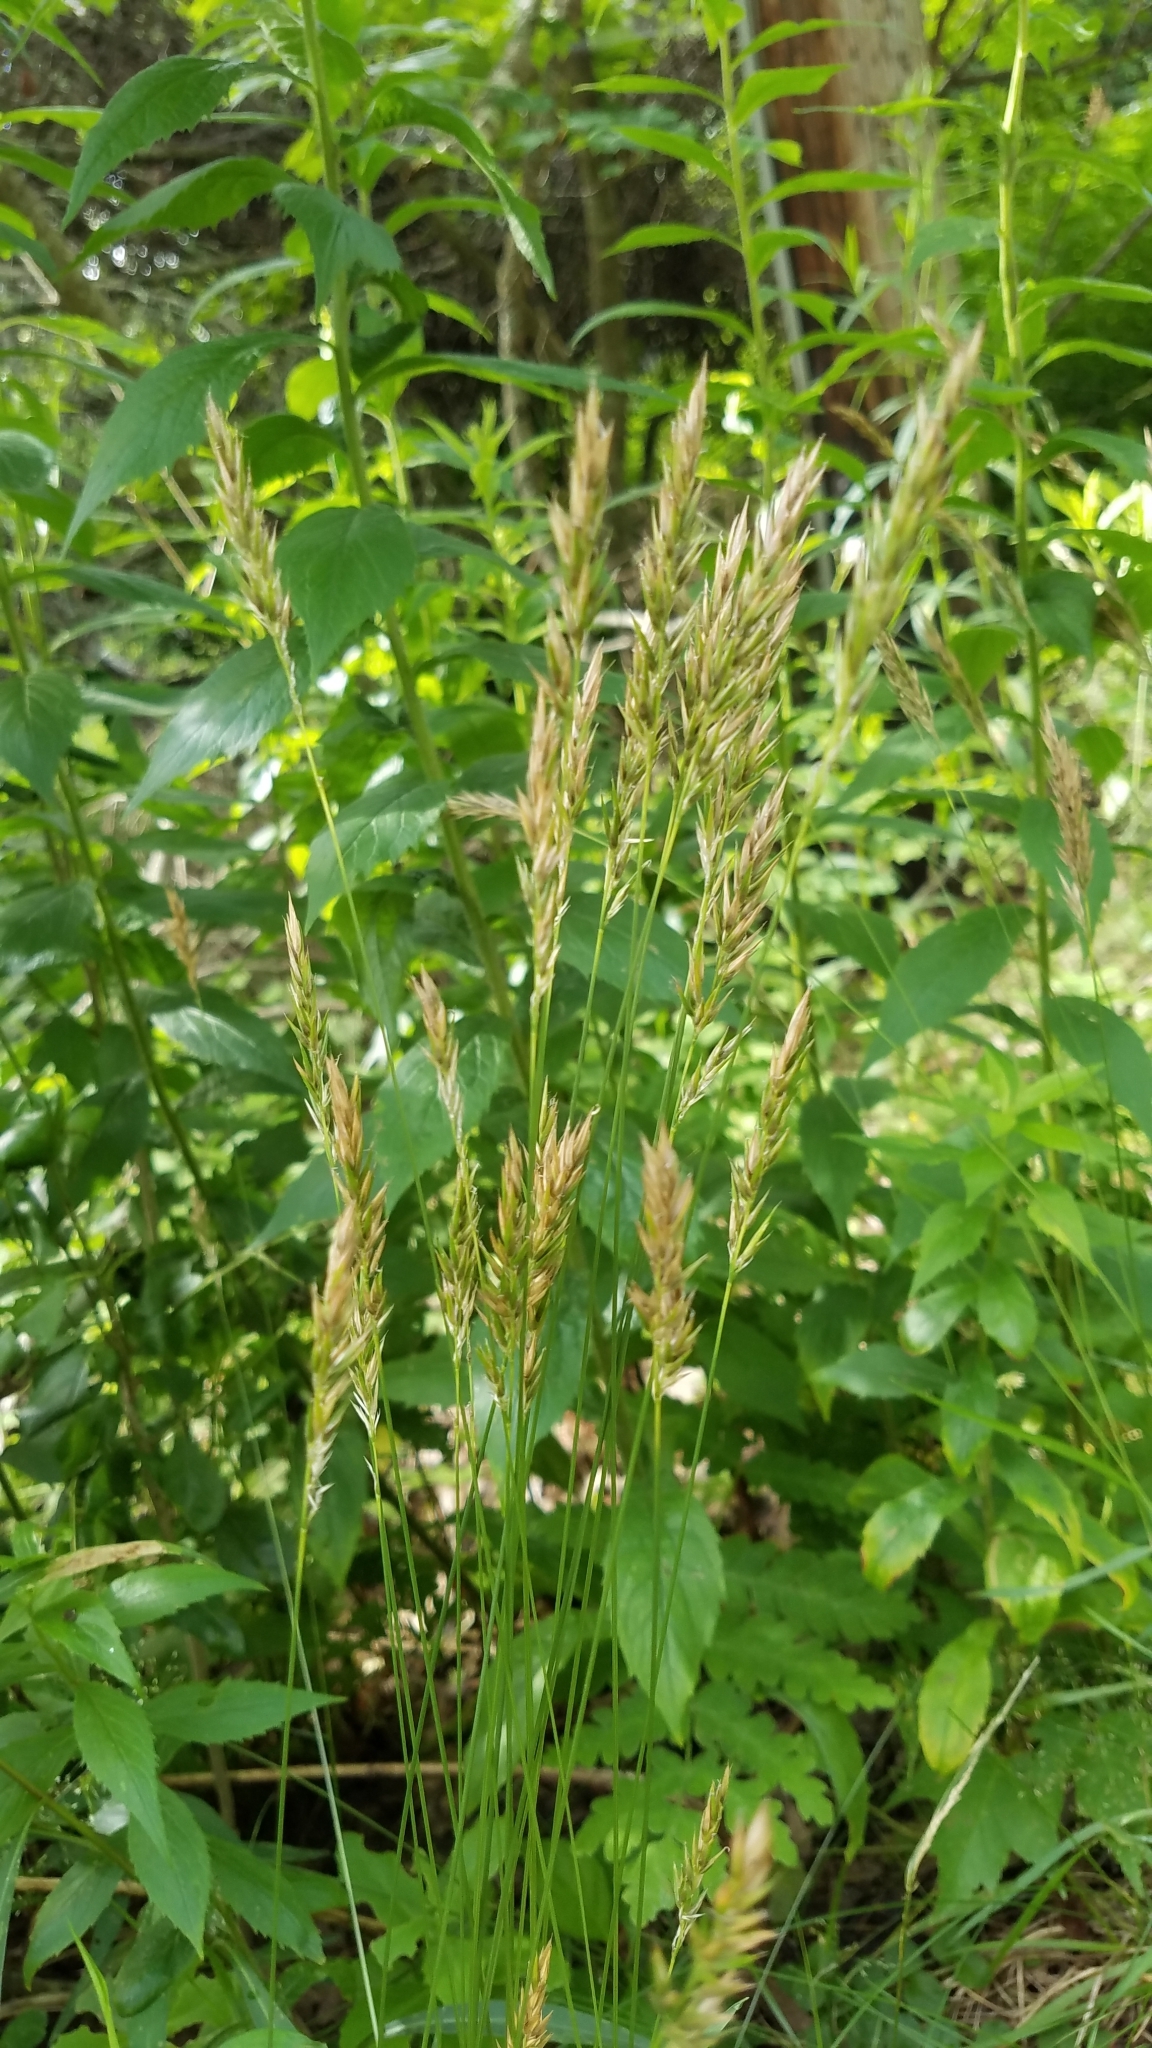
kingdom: Plantae
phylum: Tracheophyta
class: Liliopsida
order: Poales
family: Poaceae
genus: Anthoxanthum
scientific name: Anthoxanthum odoratum
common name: Sweet vernalgrass
